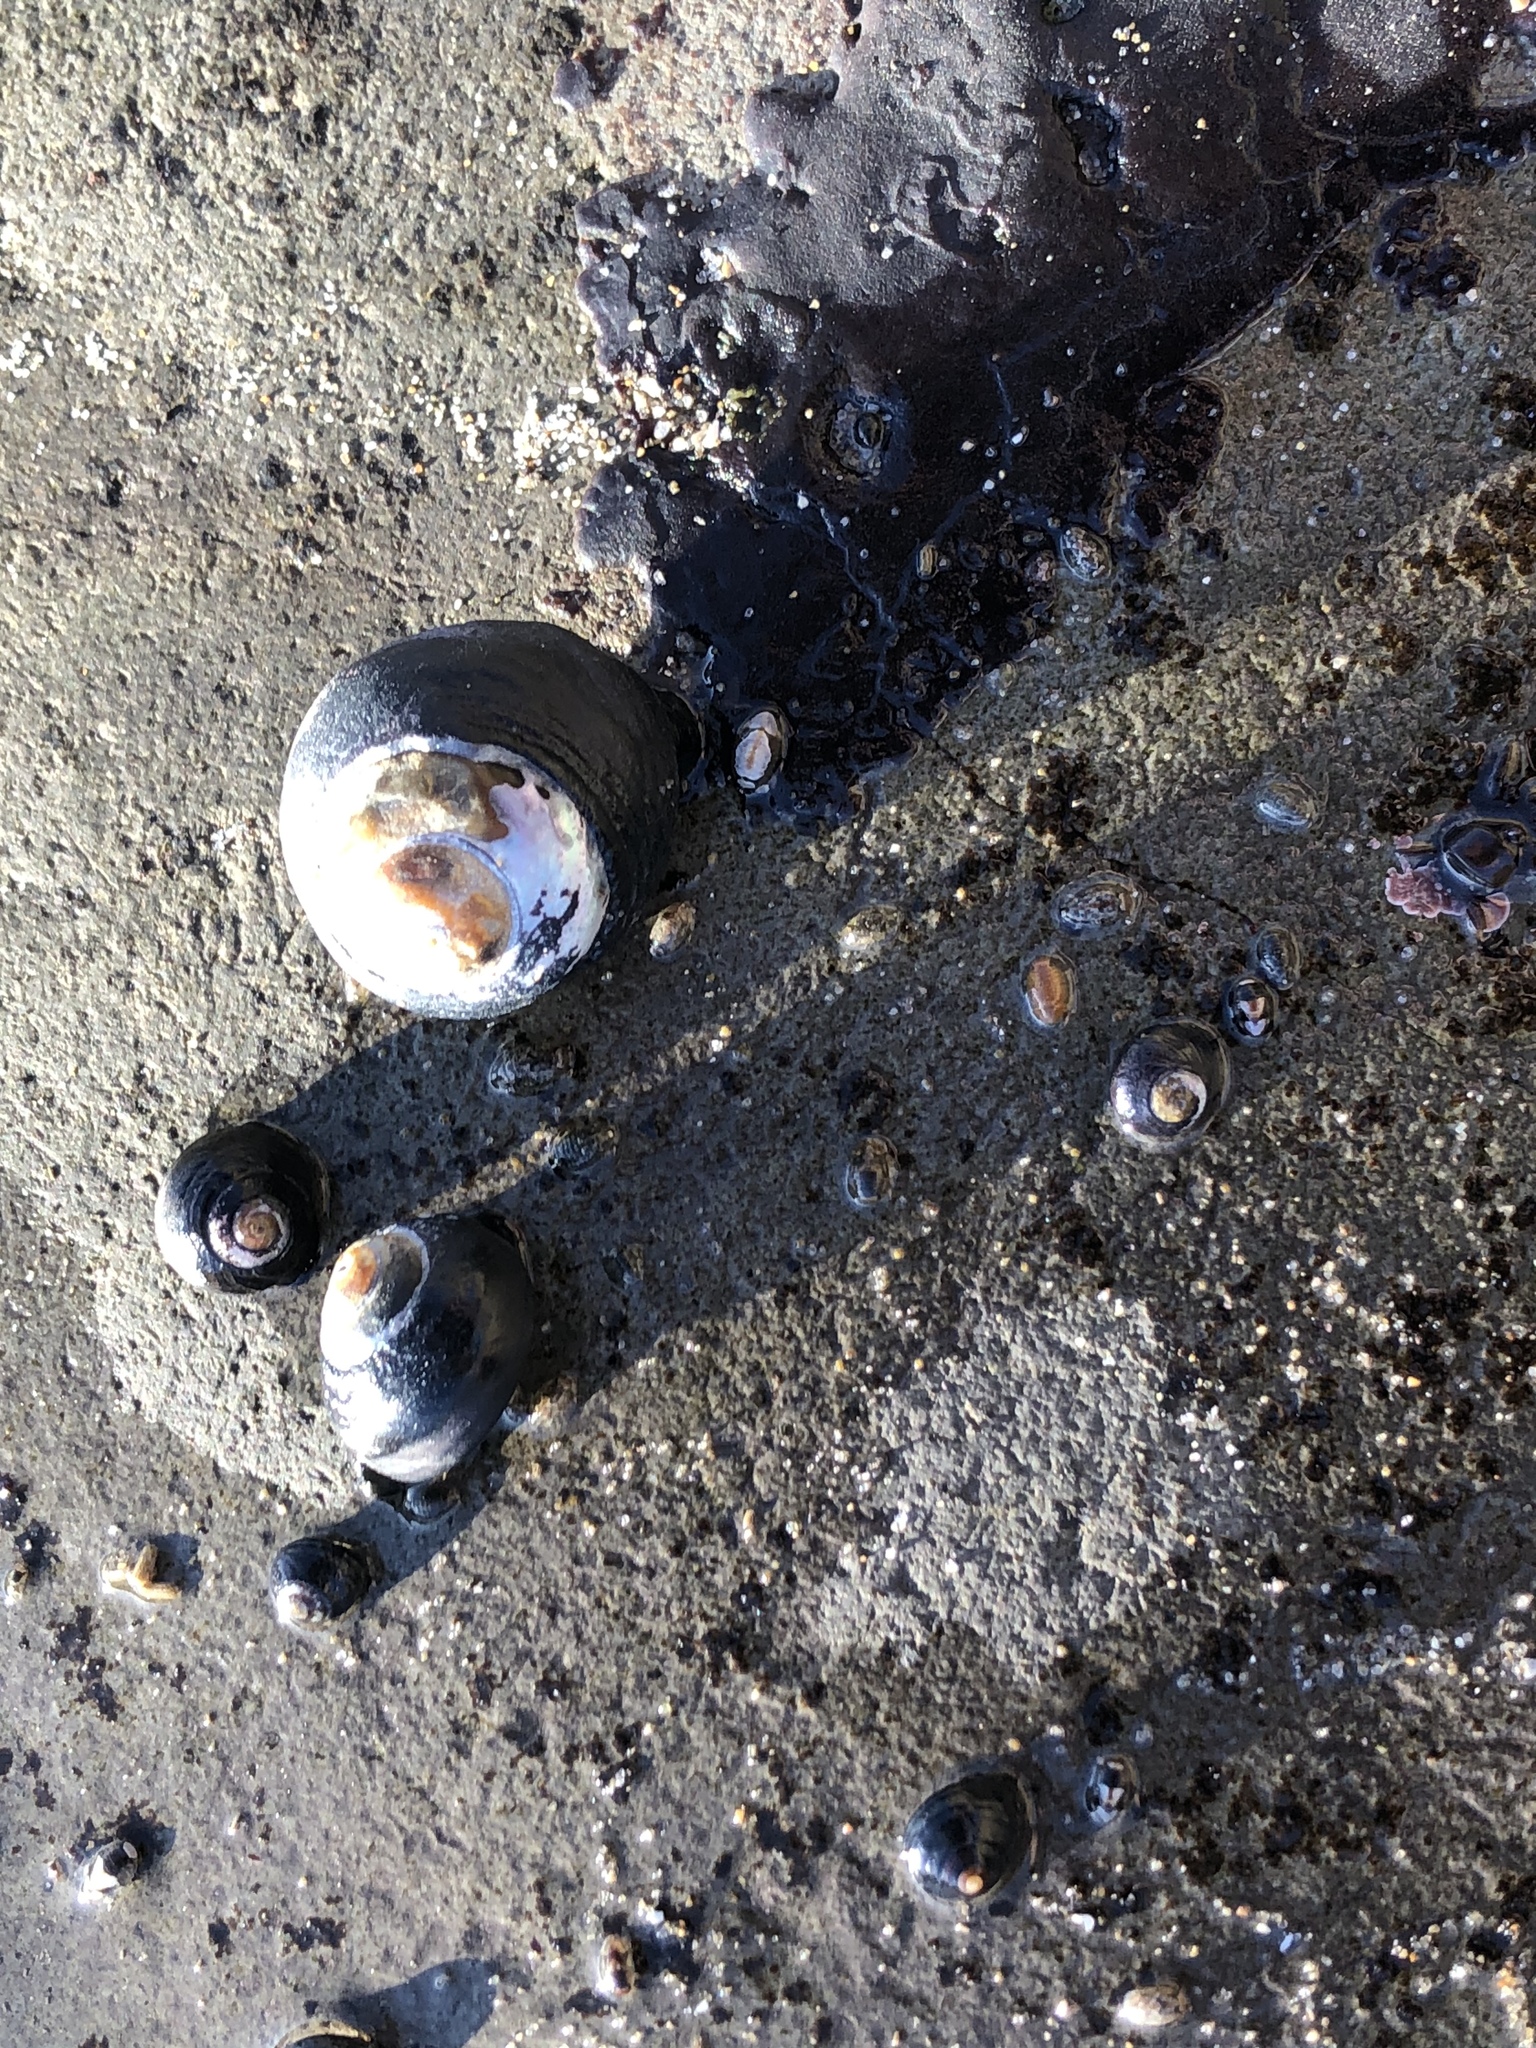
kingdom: Animalia
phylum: Mollusca
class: Gastropoda
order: Trochida
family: Tegulidae
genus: Tegula
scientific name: Tegula funebralis
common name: Black tegula
